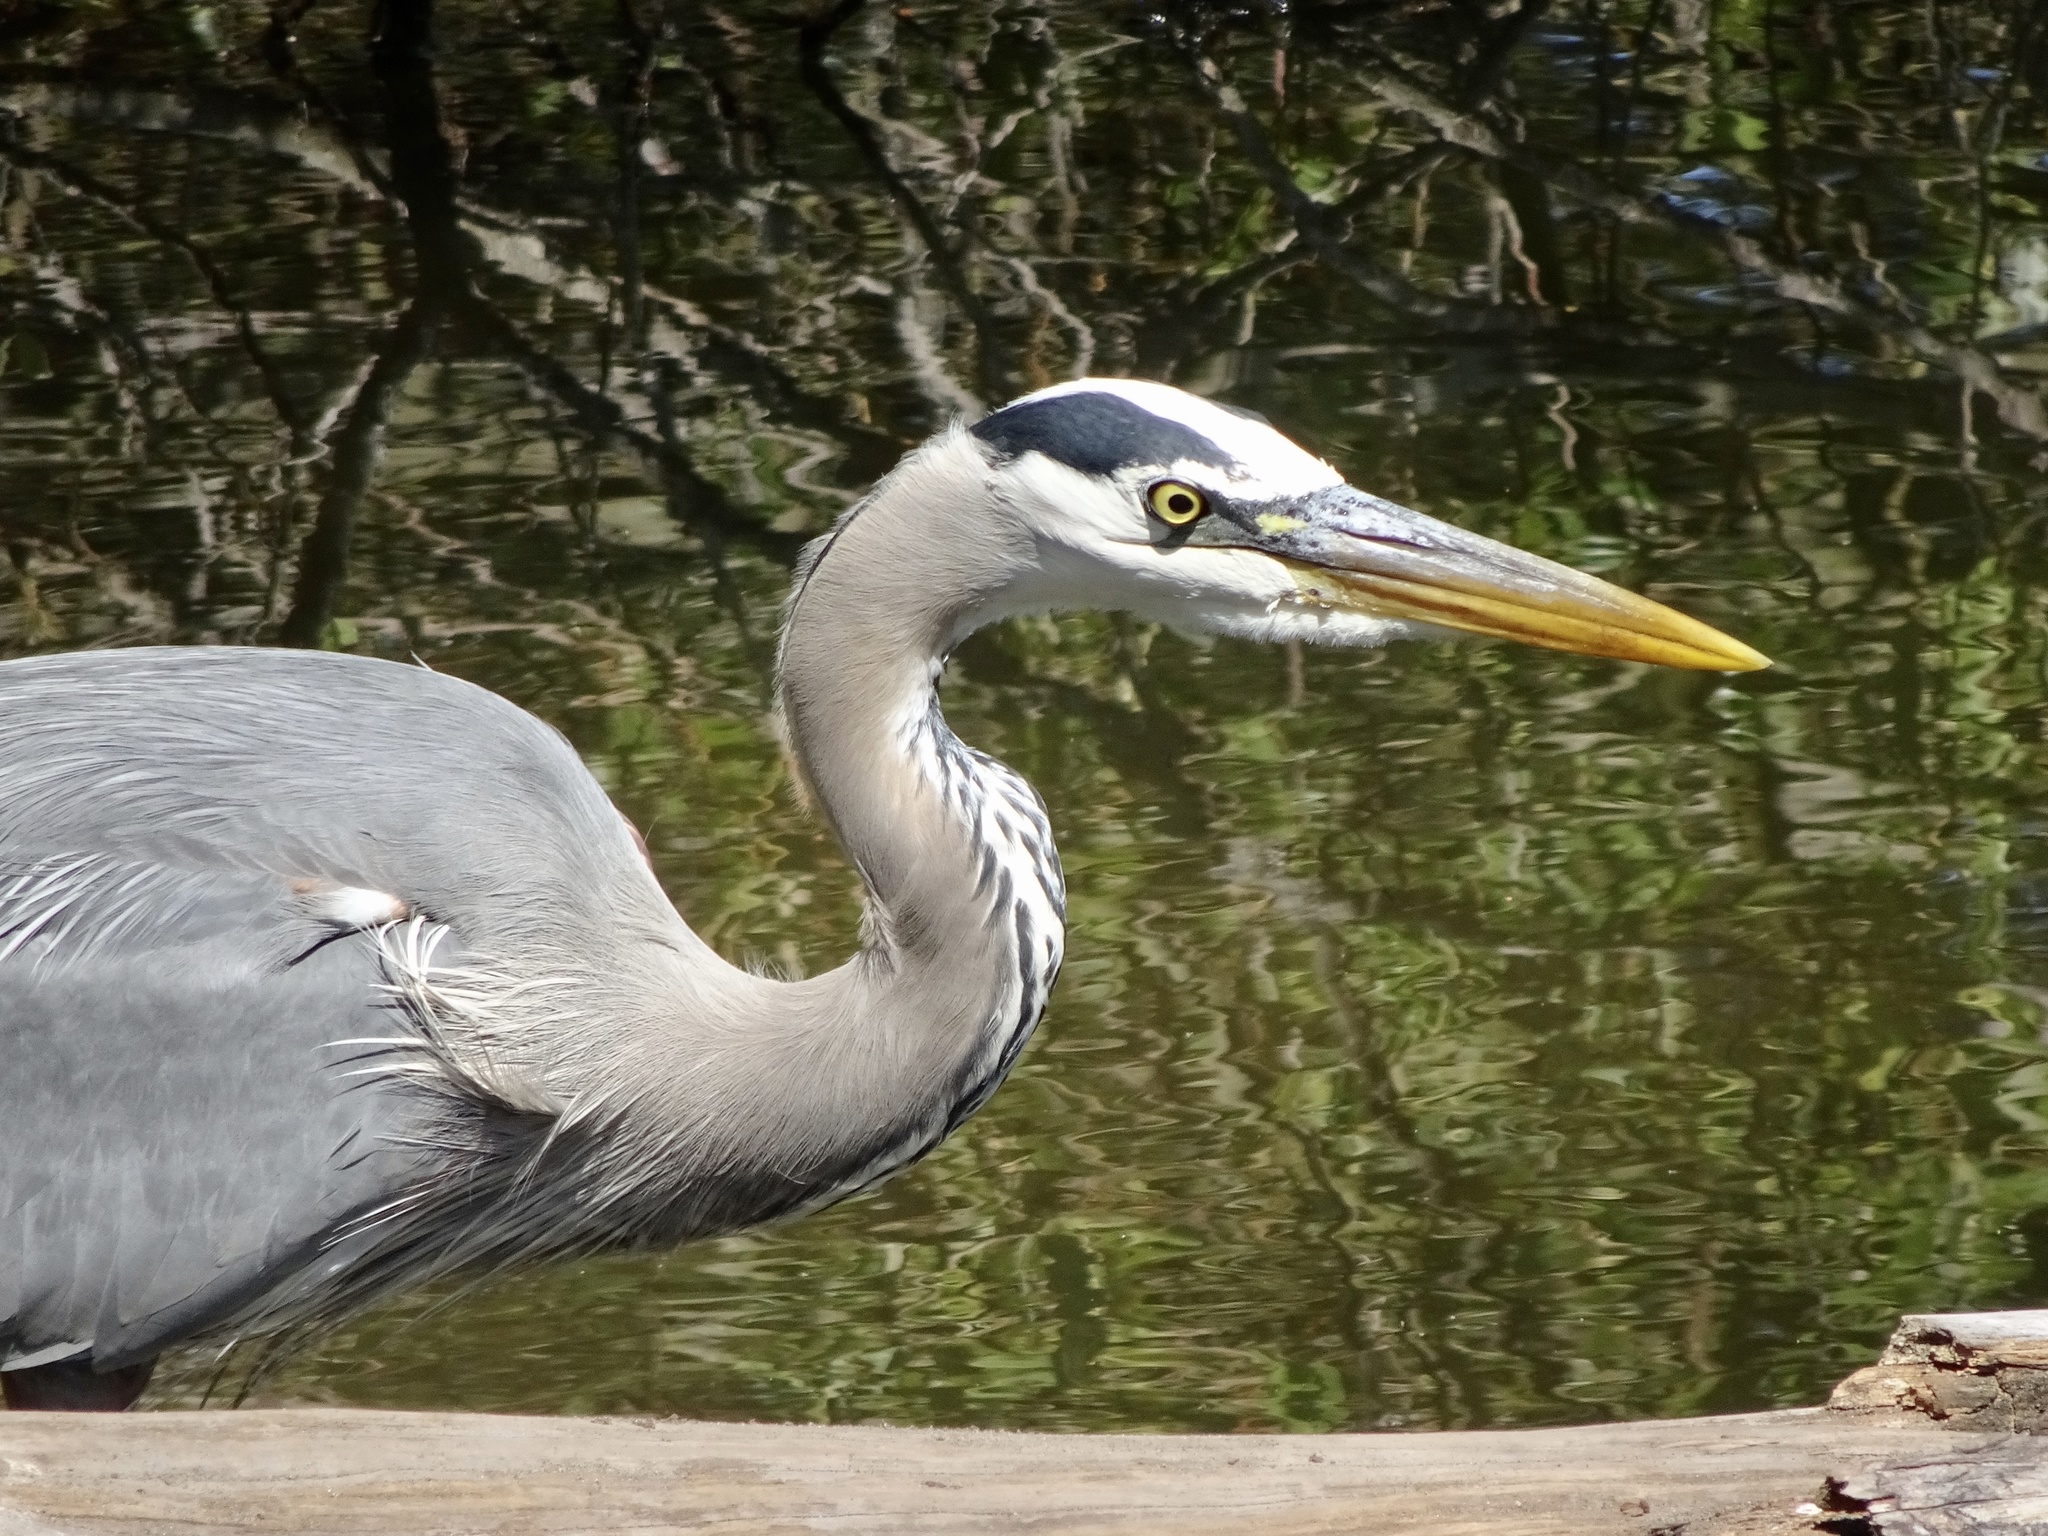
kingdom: Animalia
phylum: Chordata
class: Aves
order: Pelecaniformes
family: Ardeidae
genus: Ardea
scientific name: Ardea herodias
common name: Great blue heron
